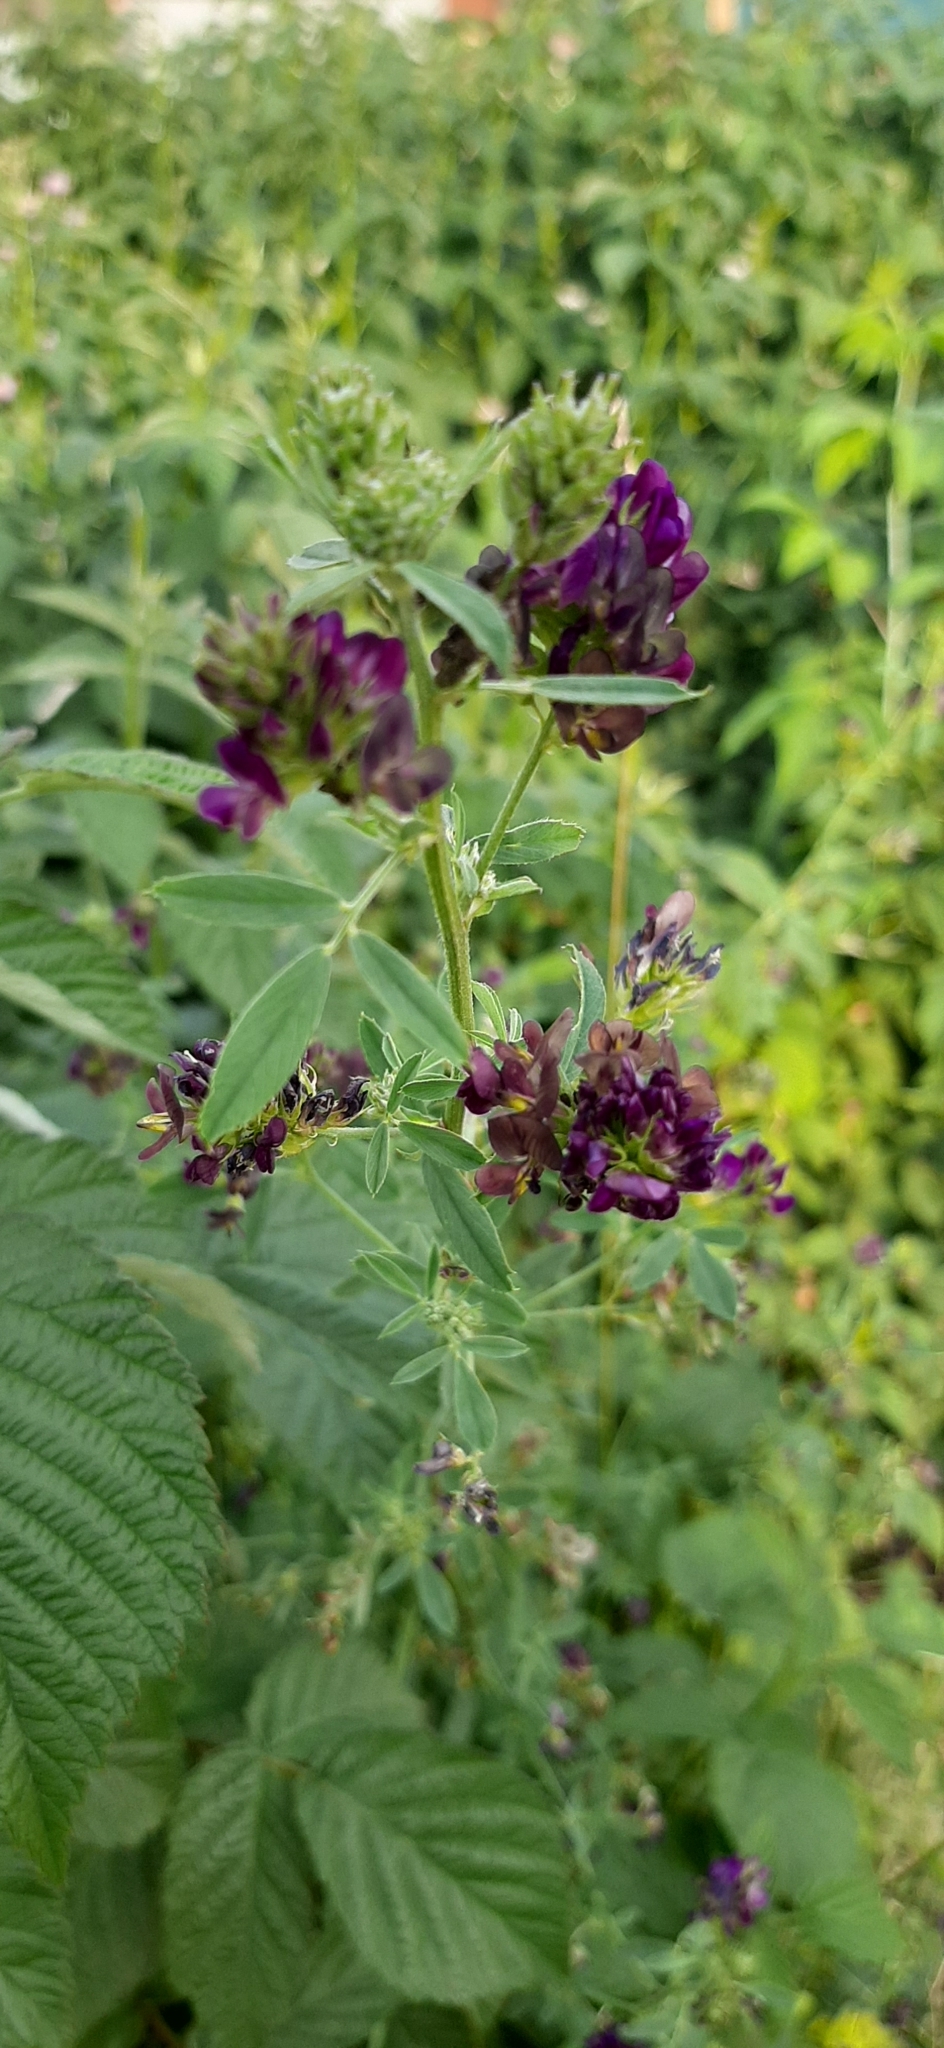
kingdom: Plantae
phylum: Tracheophyta
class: Magnoliopsida
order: Fabales
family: Fabaceae
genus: Medicago
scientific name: Medicago varia
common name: Sand lucerne
